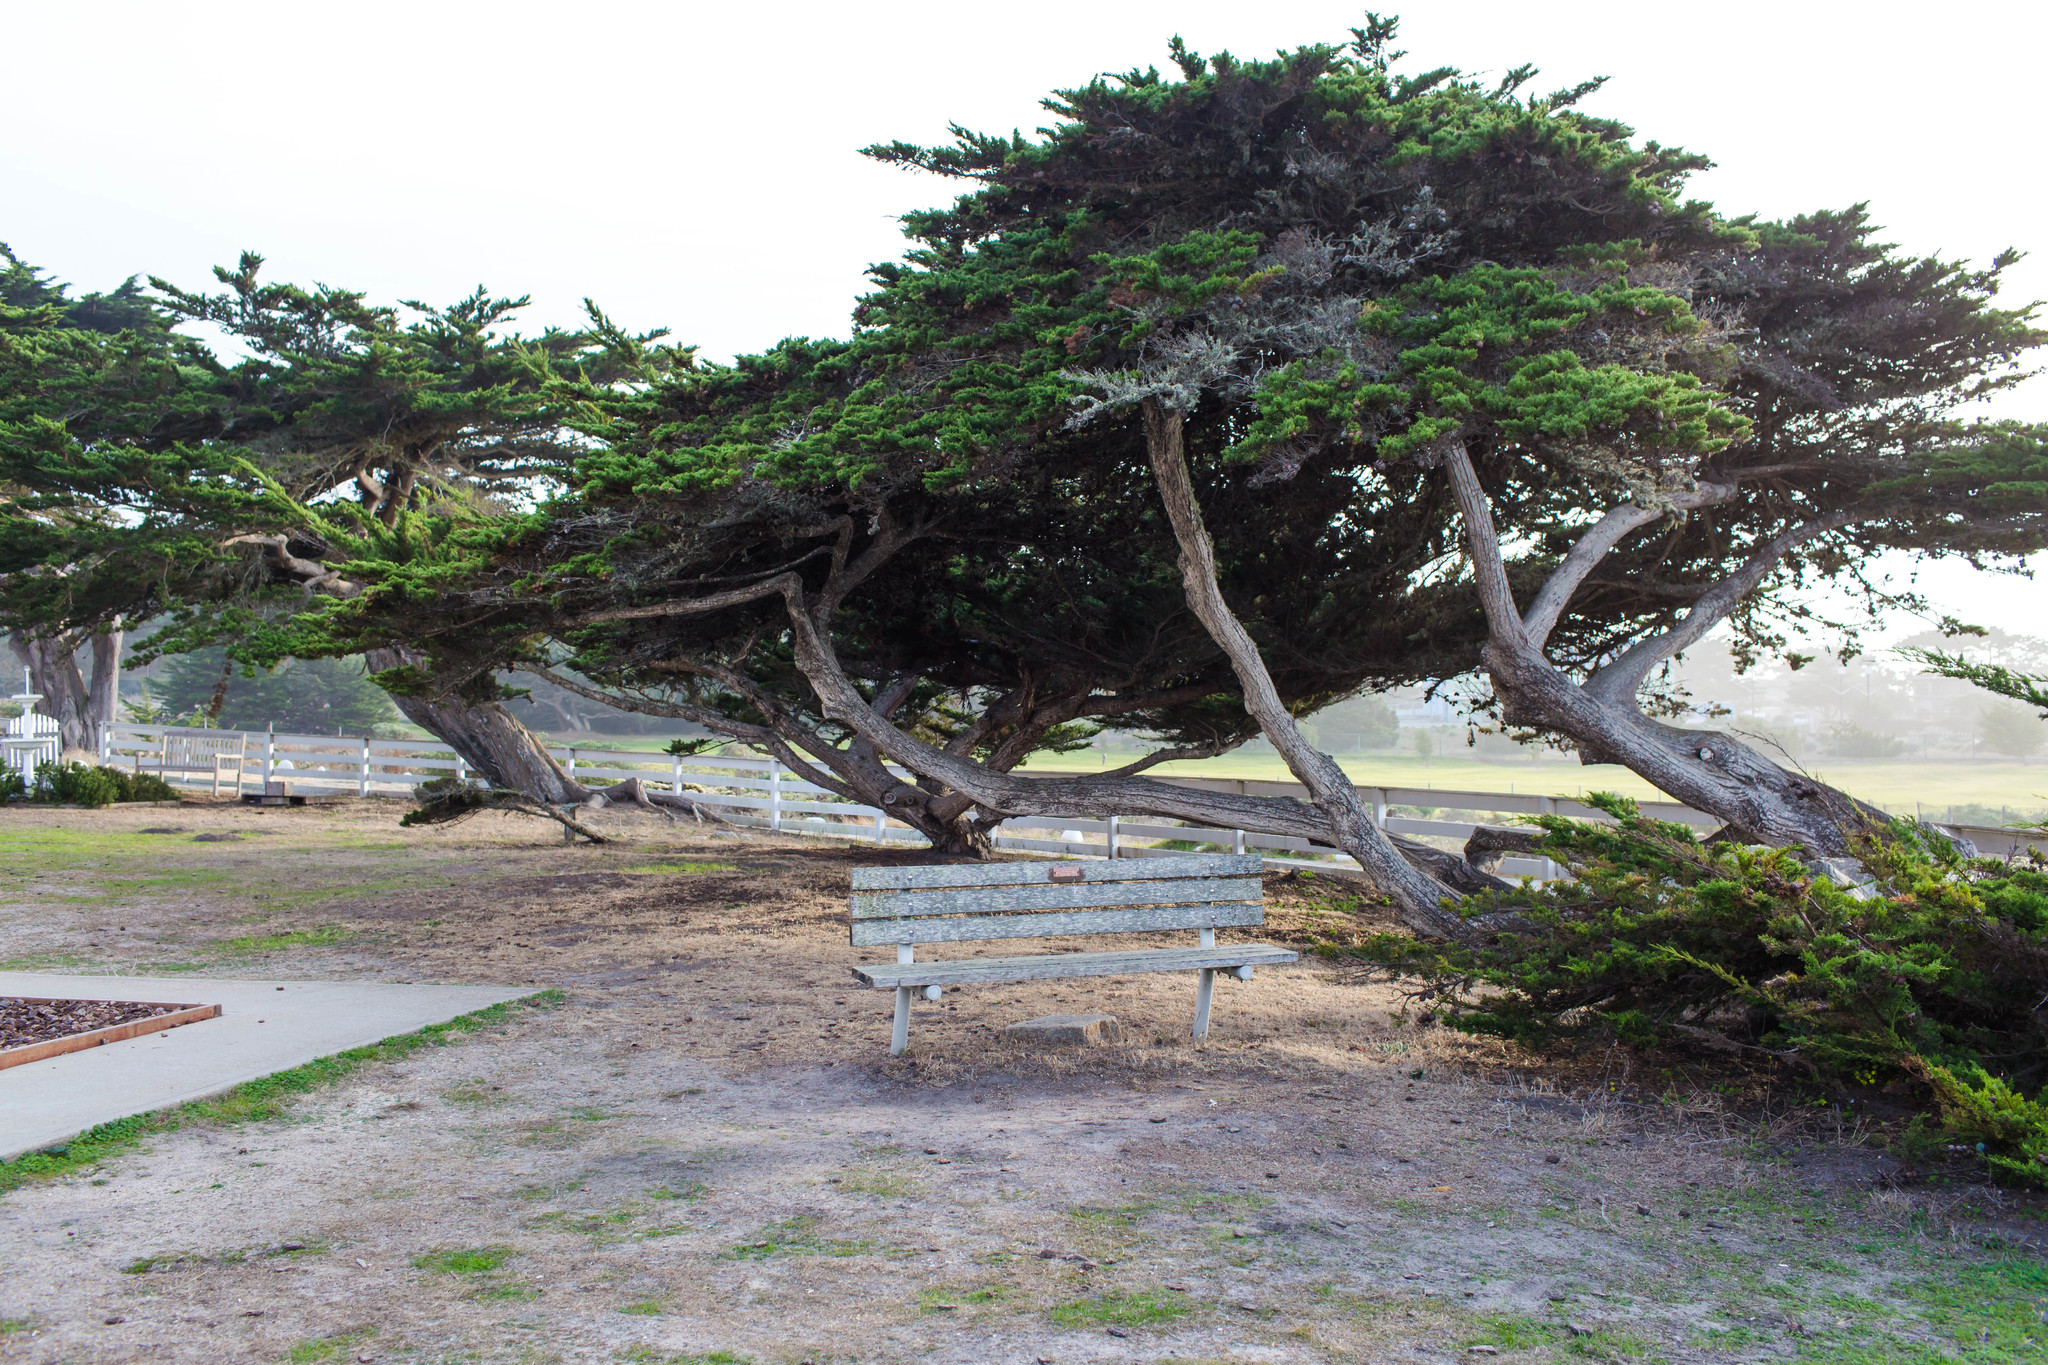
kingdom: Plantae
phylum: Tracheophyta
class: Pinopsida
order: Pinales
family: Cupressaceae
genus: Cupressus
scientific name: Cupressus macrocarpa
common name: Monterey cypress
